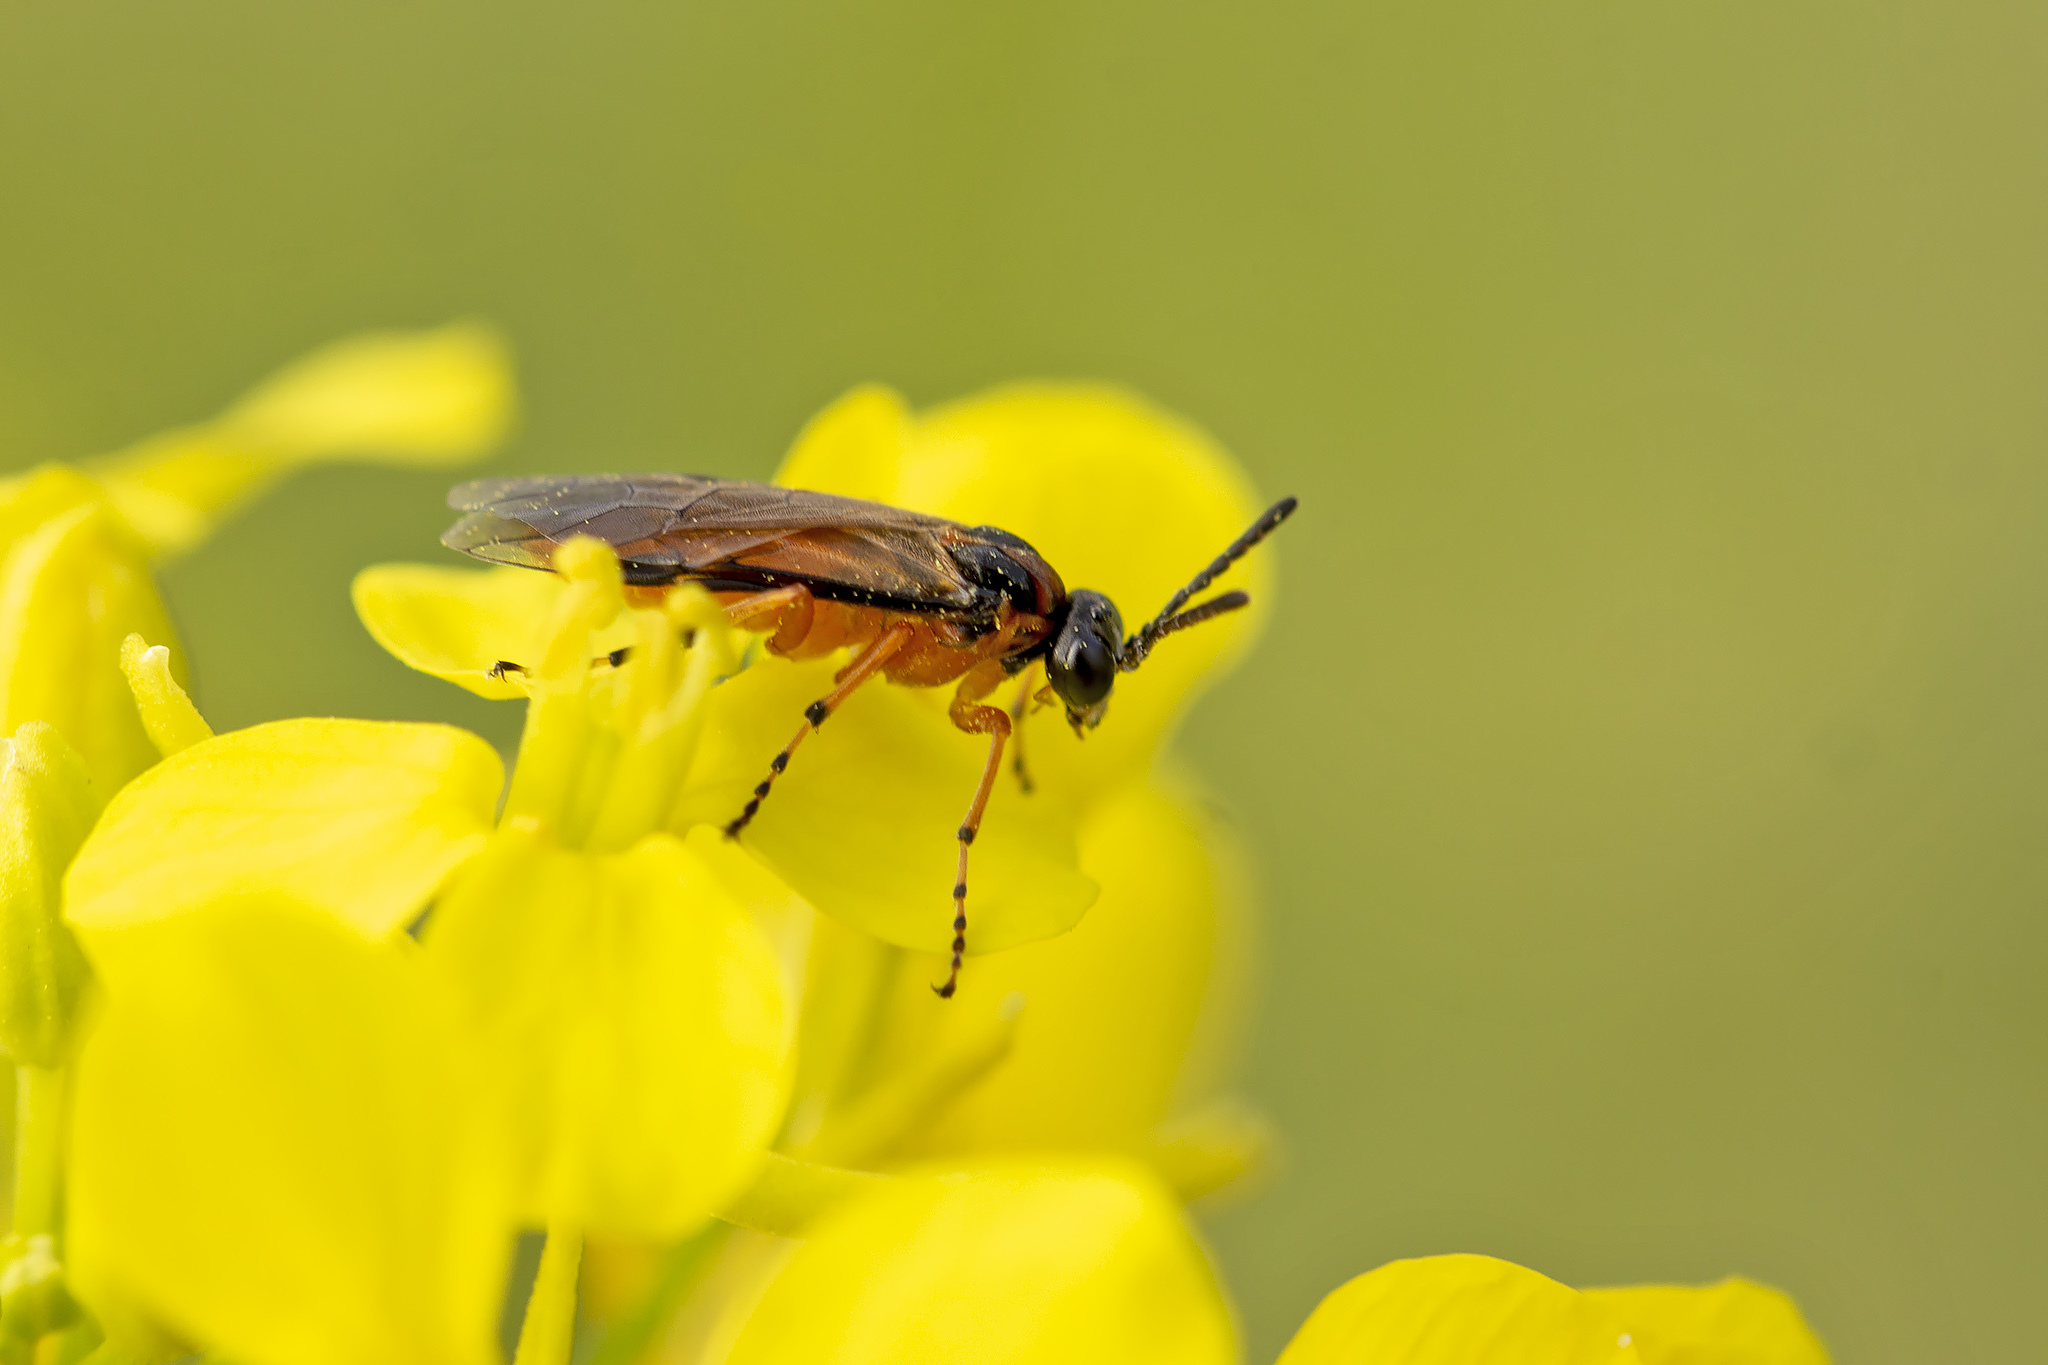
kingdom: Animalia
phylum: Arthropoda
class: Insecta
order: Hymenoptera
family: Tenthredinidae
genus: Athalia
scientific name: Athalia rosae
